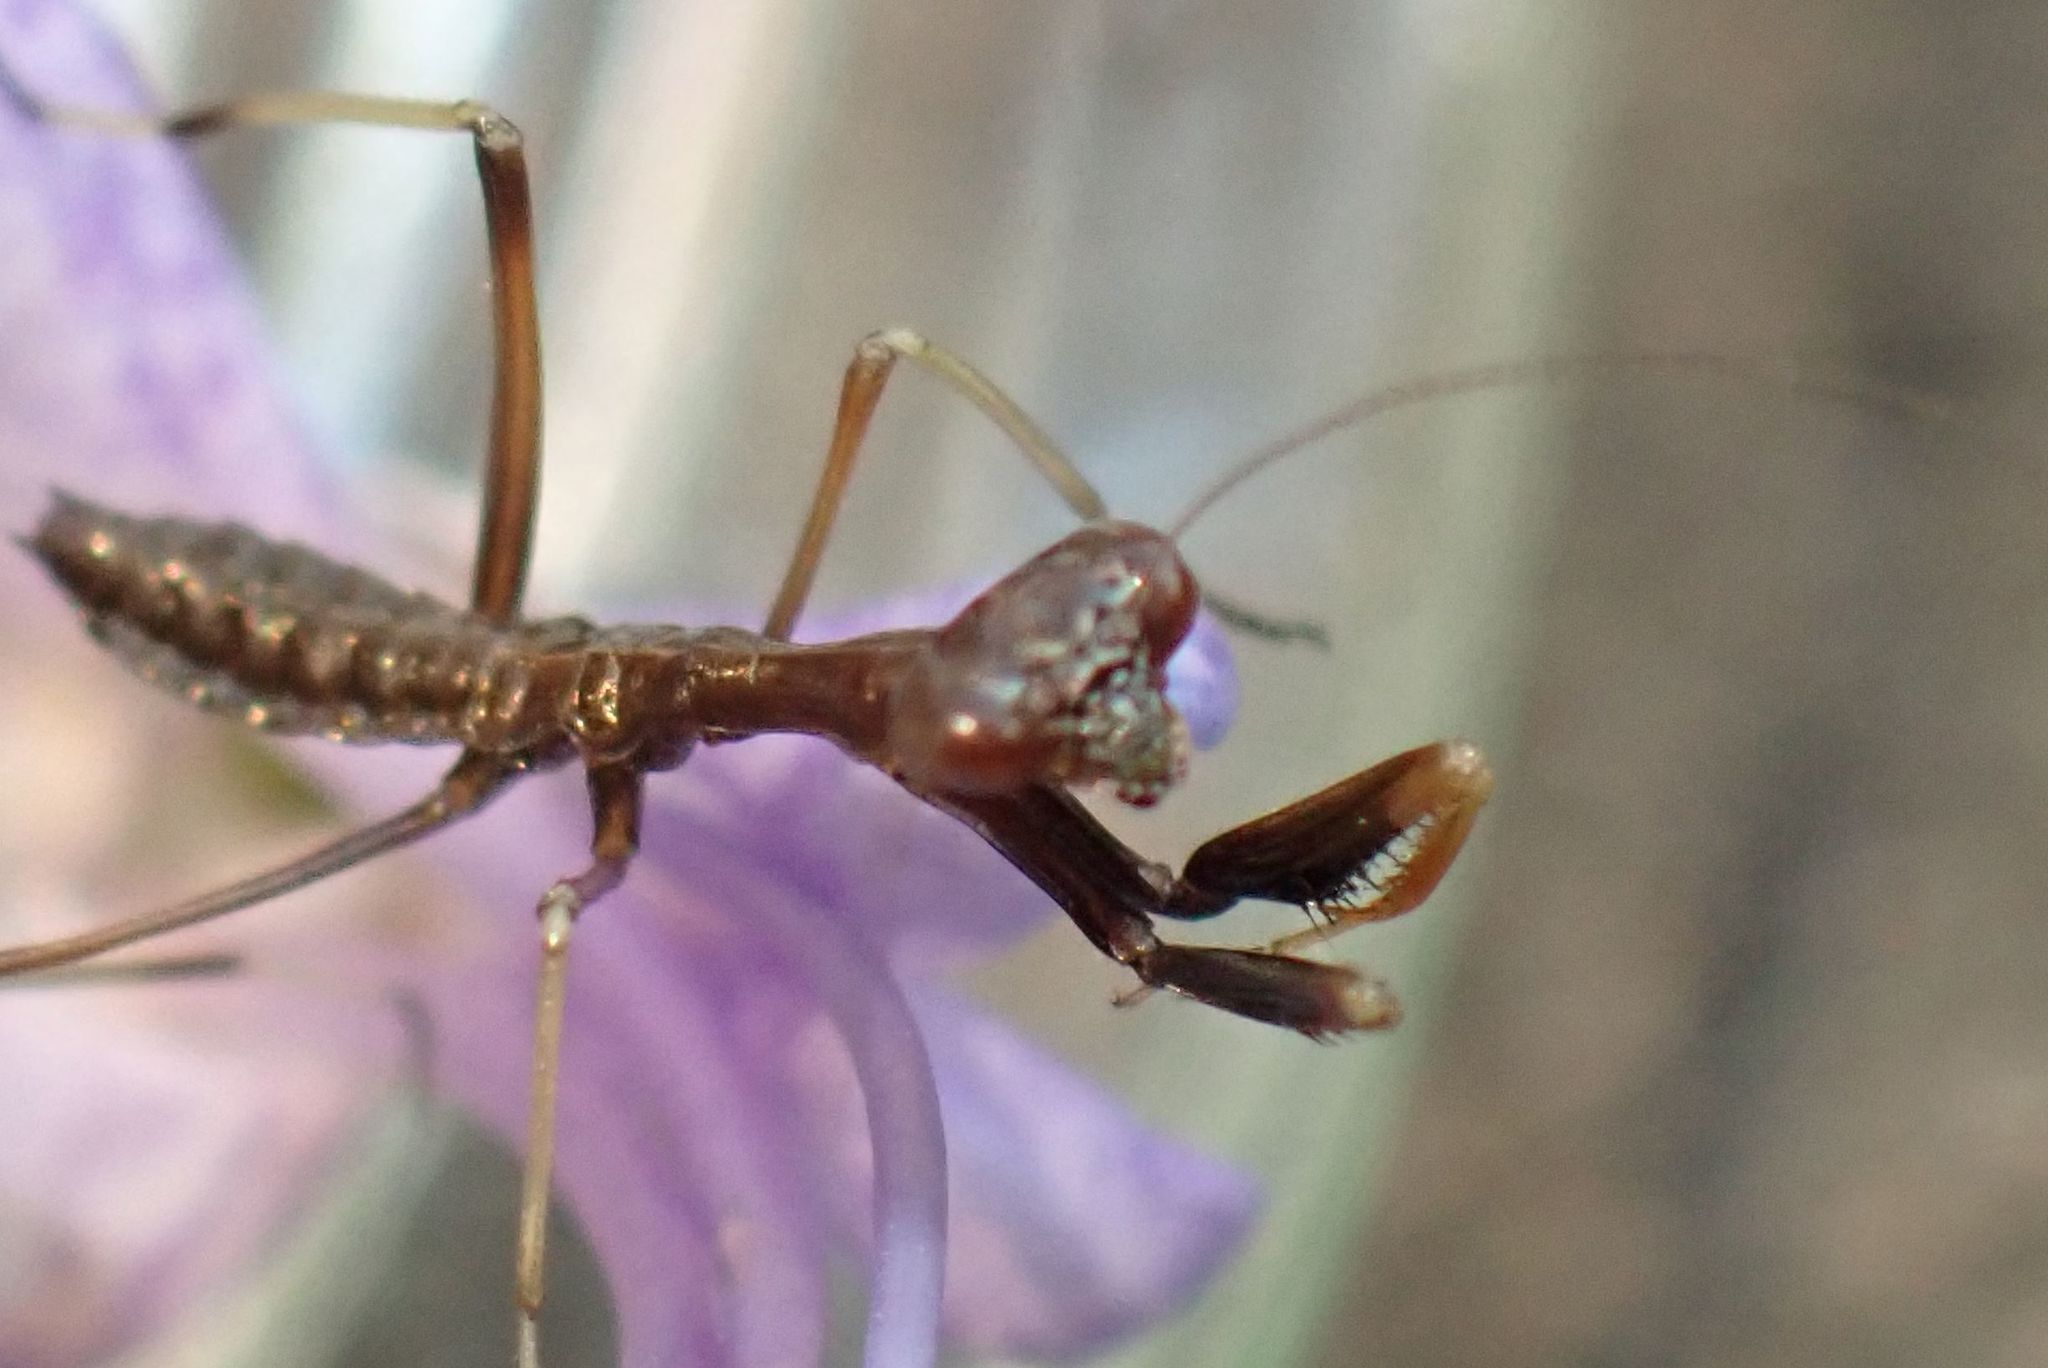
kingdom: Animalia
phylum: Arthropoda
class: Insecta
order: Mantodea
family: Mantidae
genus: Pseudomantis
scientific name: Pseudomantis albofimbriata
